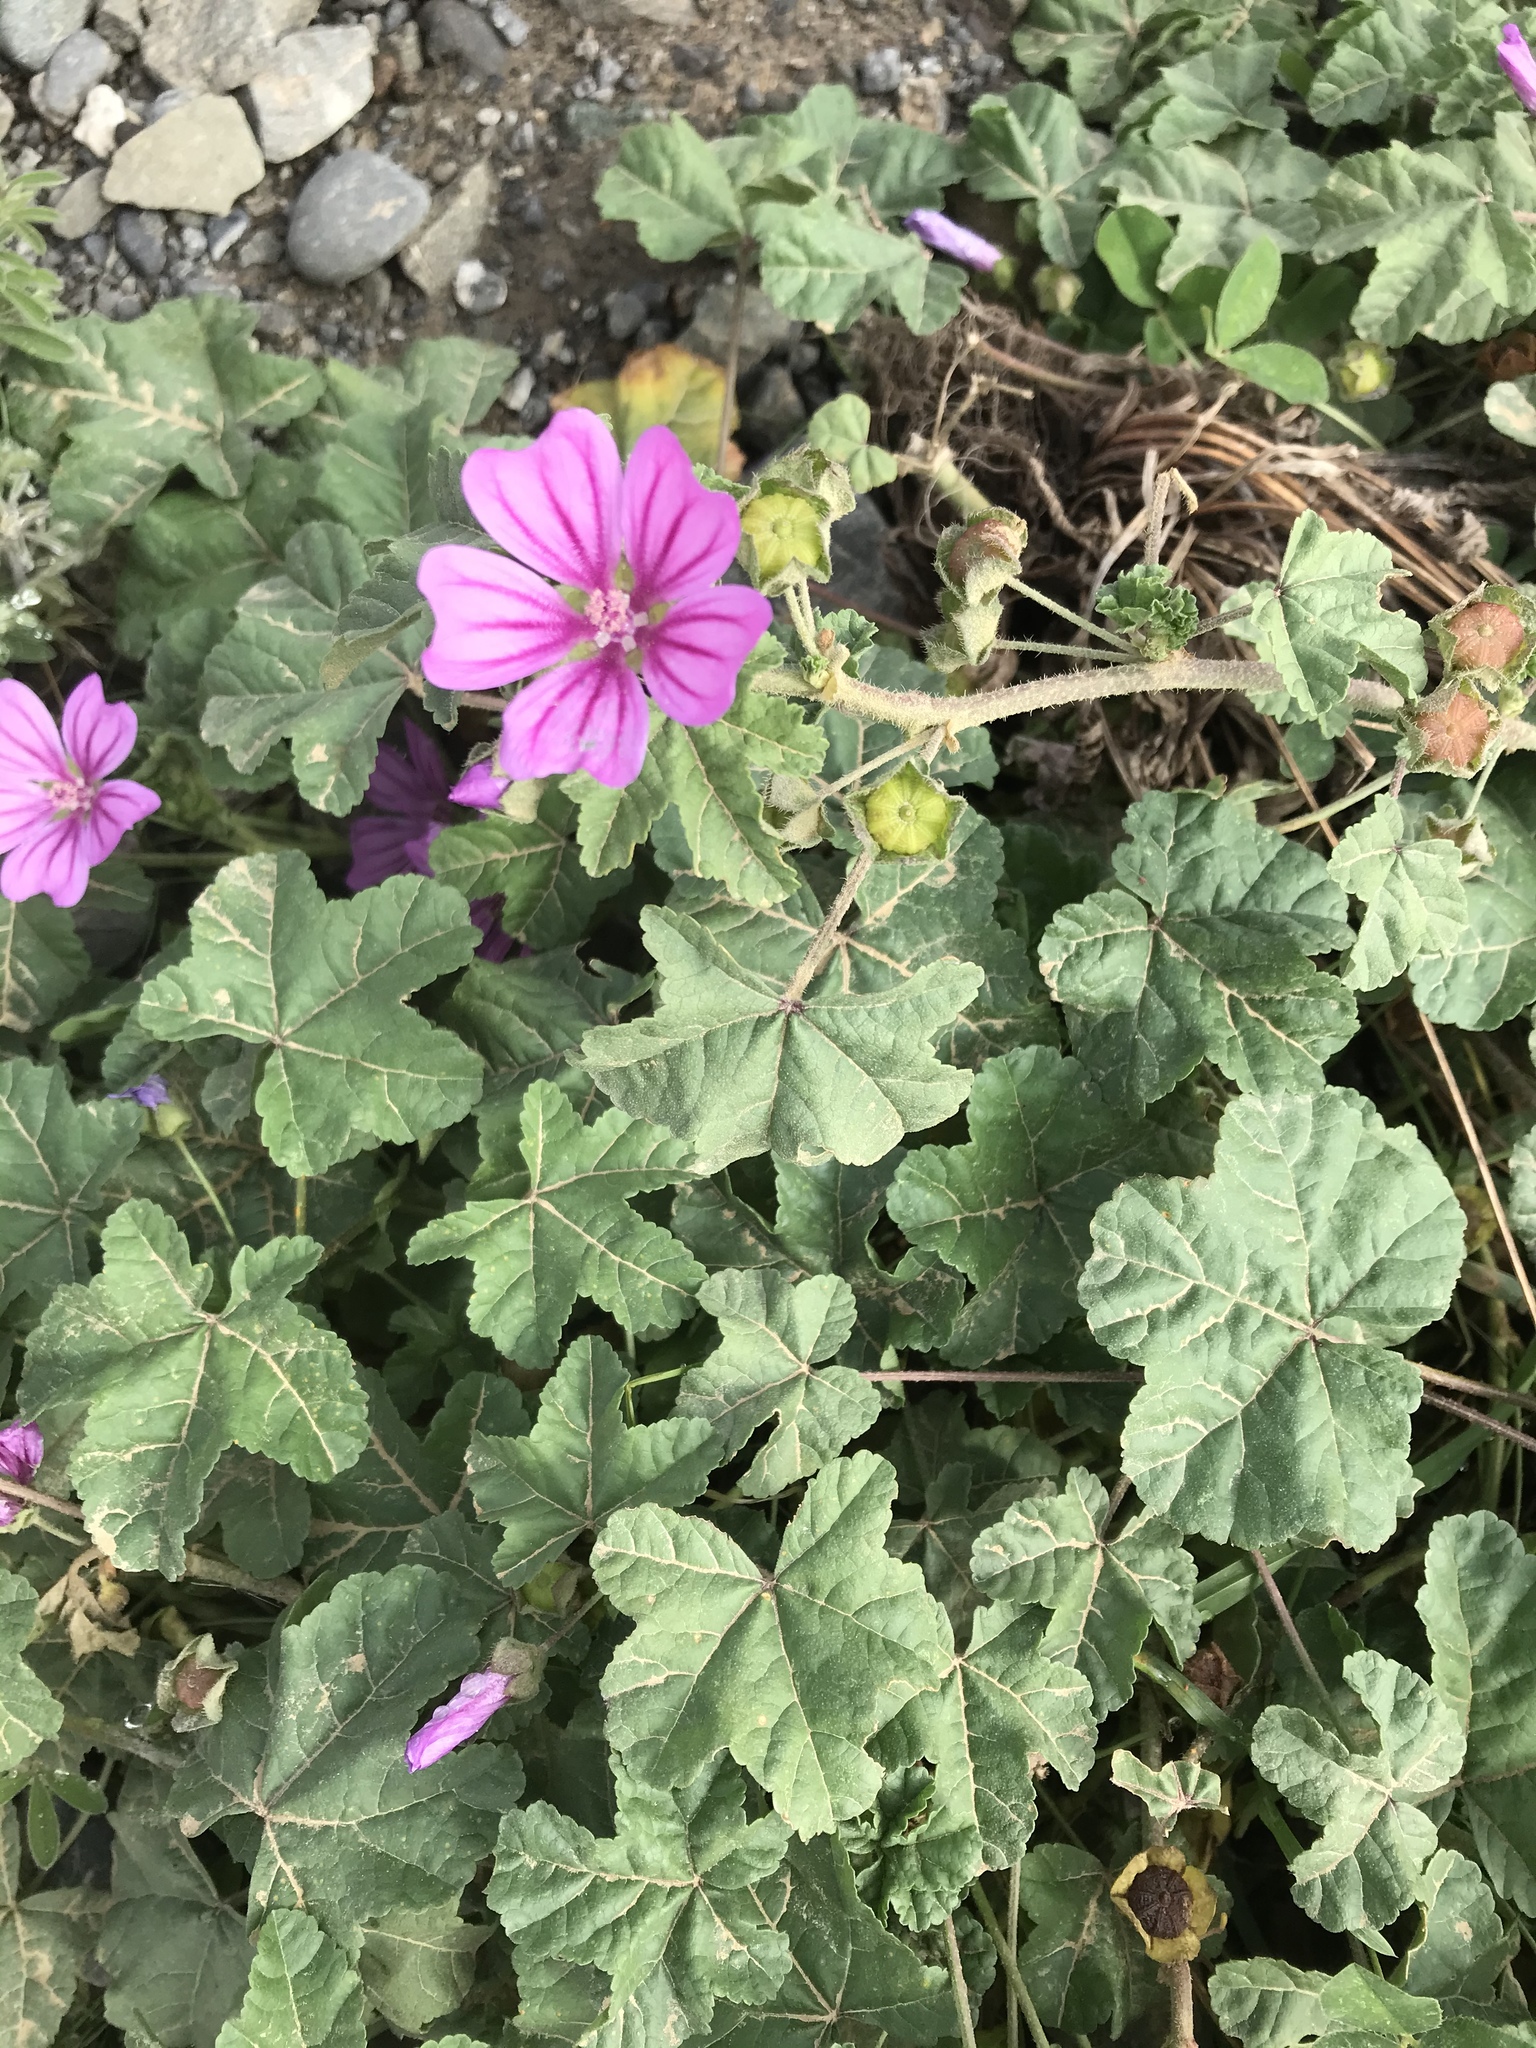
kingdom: Plantae
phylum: Tracheophyta
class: Magnoliopsida
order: Malvales
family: Malvaceae
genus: Malva
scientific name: Malva sylvestris
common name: Common mallow
